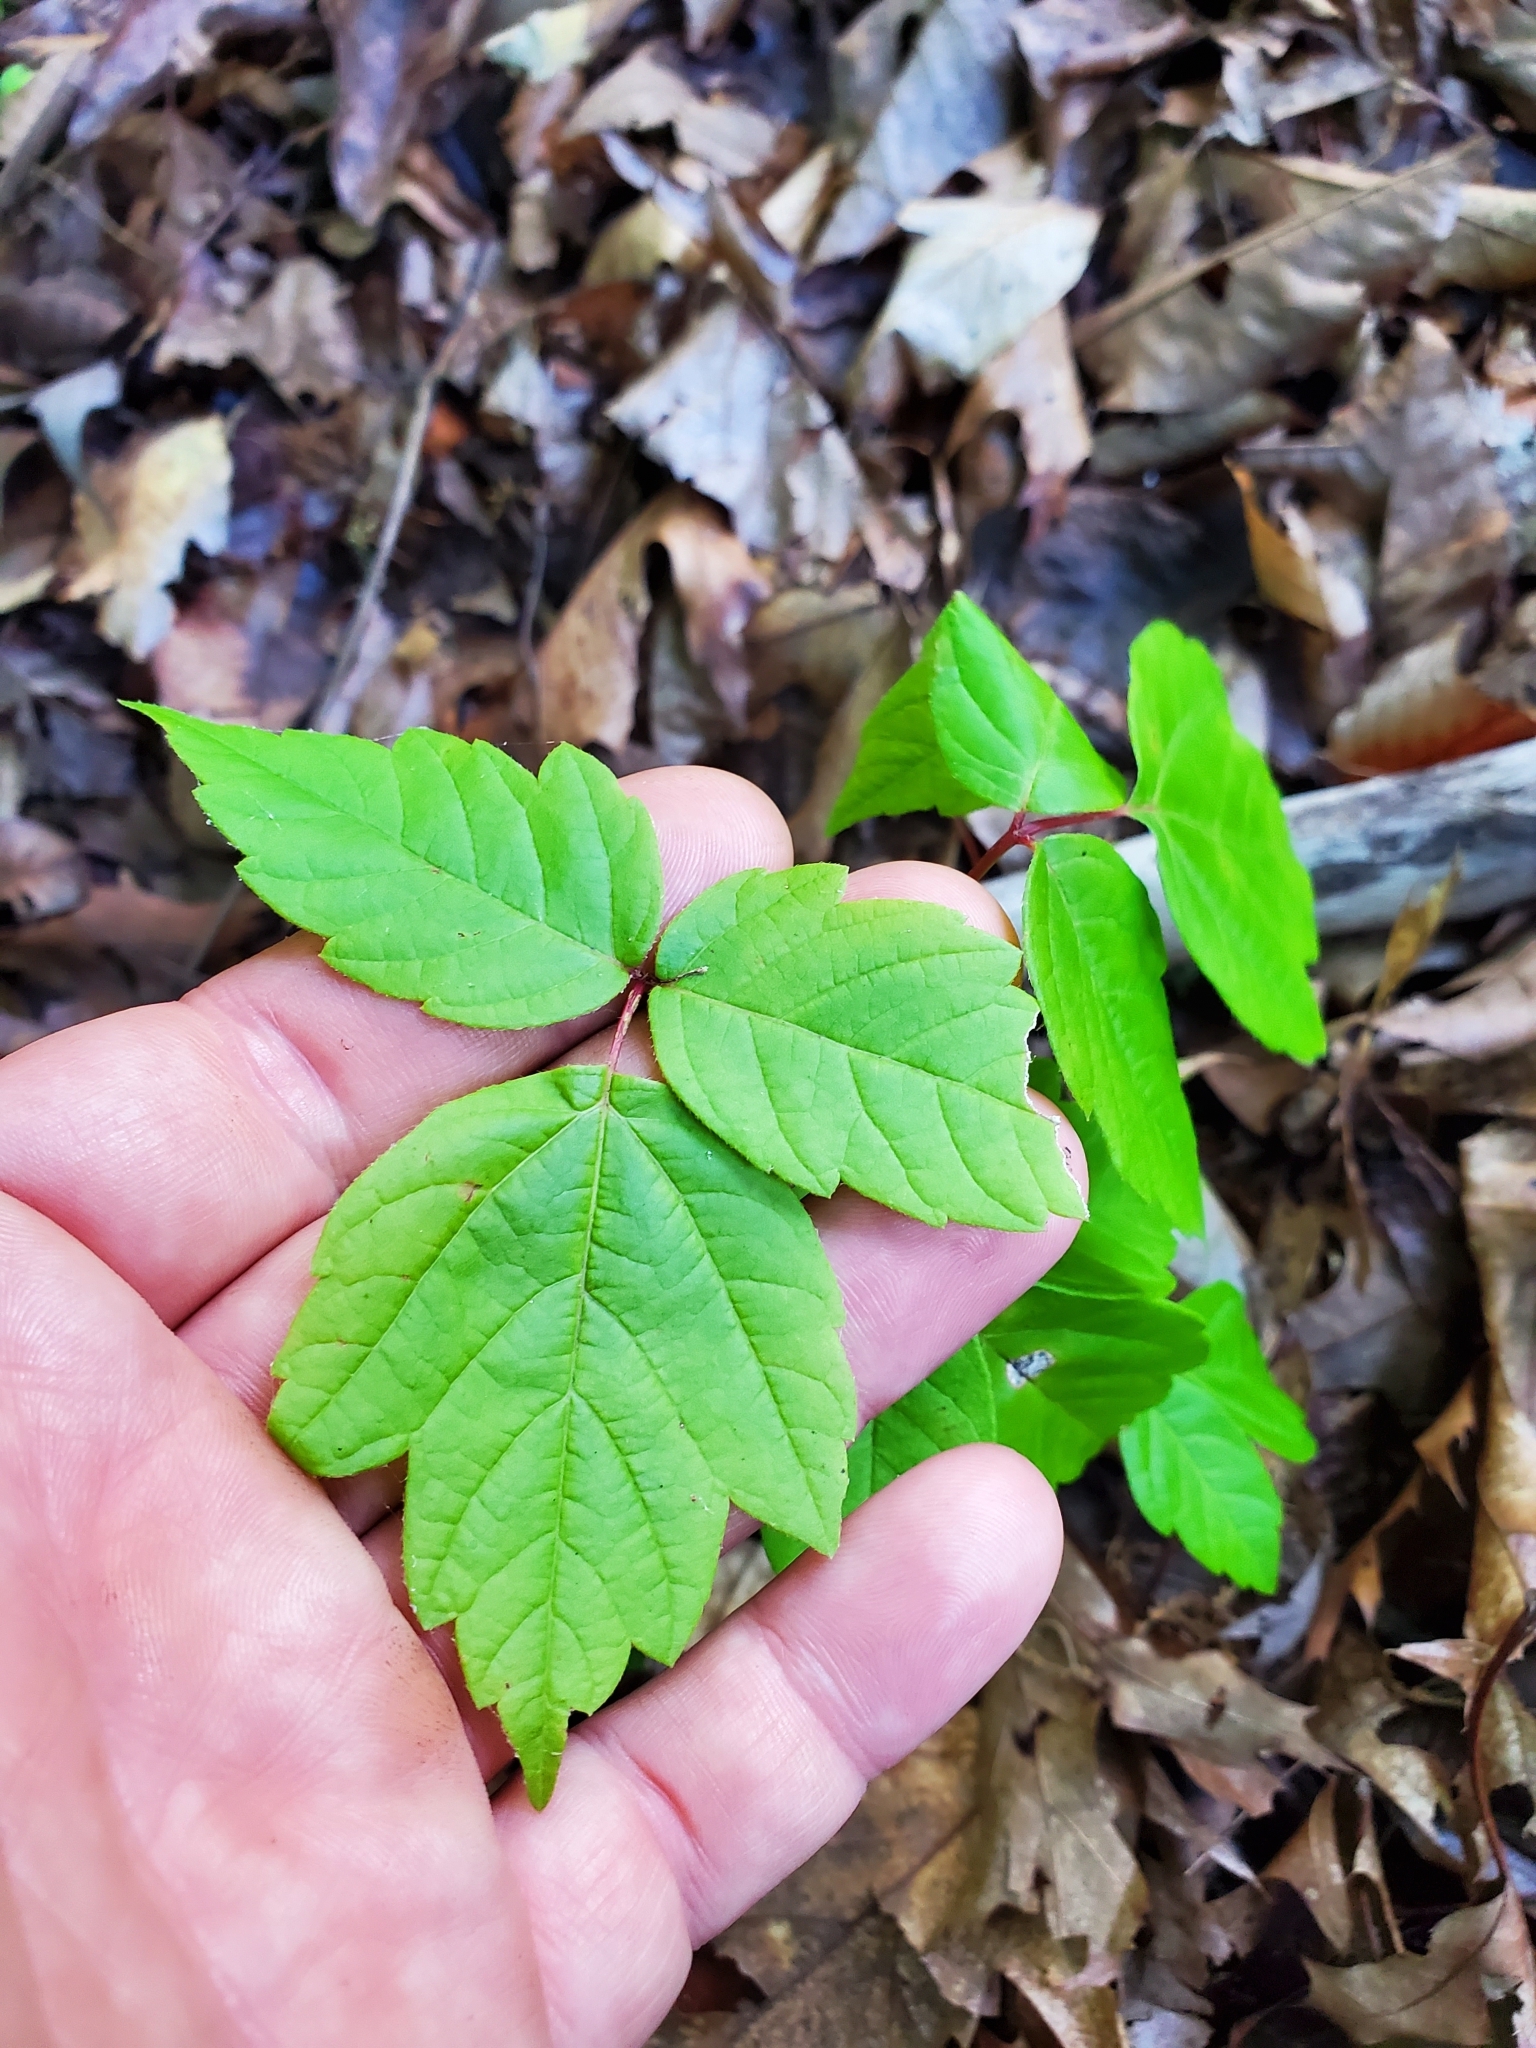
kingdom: Plantae
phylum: Tracheophyta
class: Magnoliopsida
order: Sapindales
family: Sapindaceae
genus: Acer
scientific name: Acer negundo
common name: Ashleaf maple
